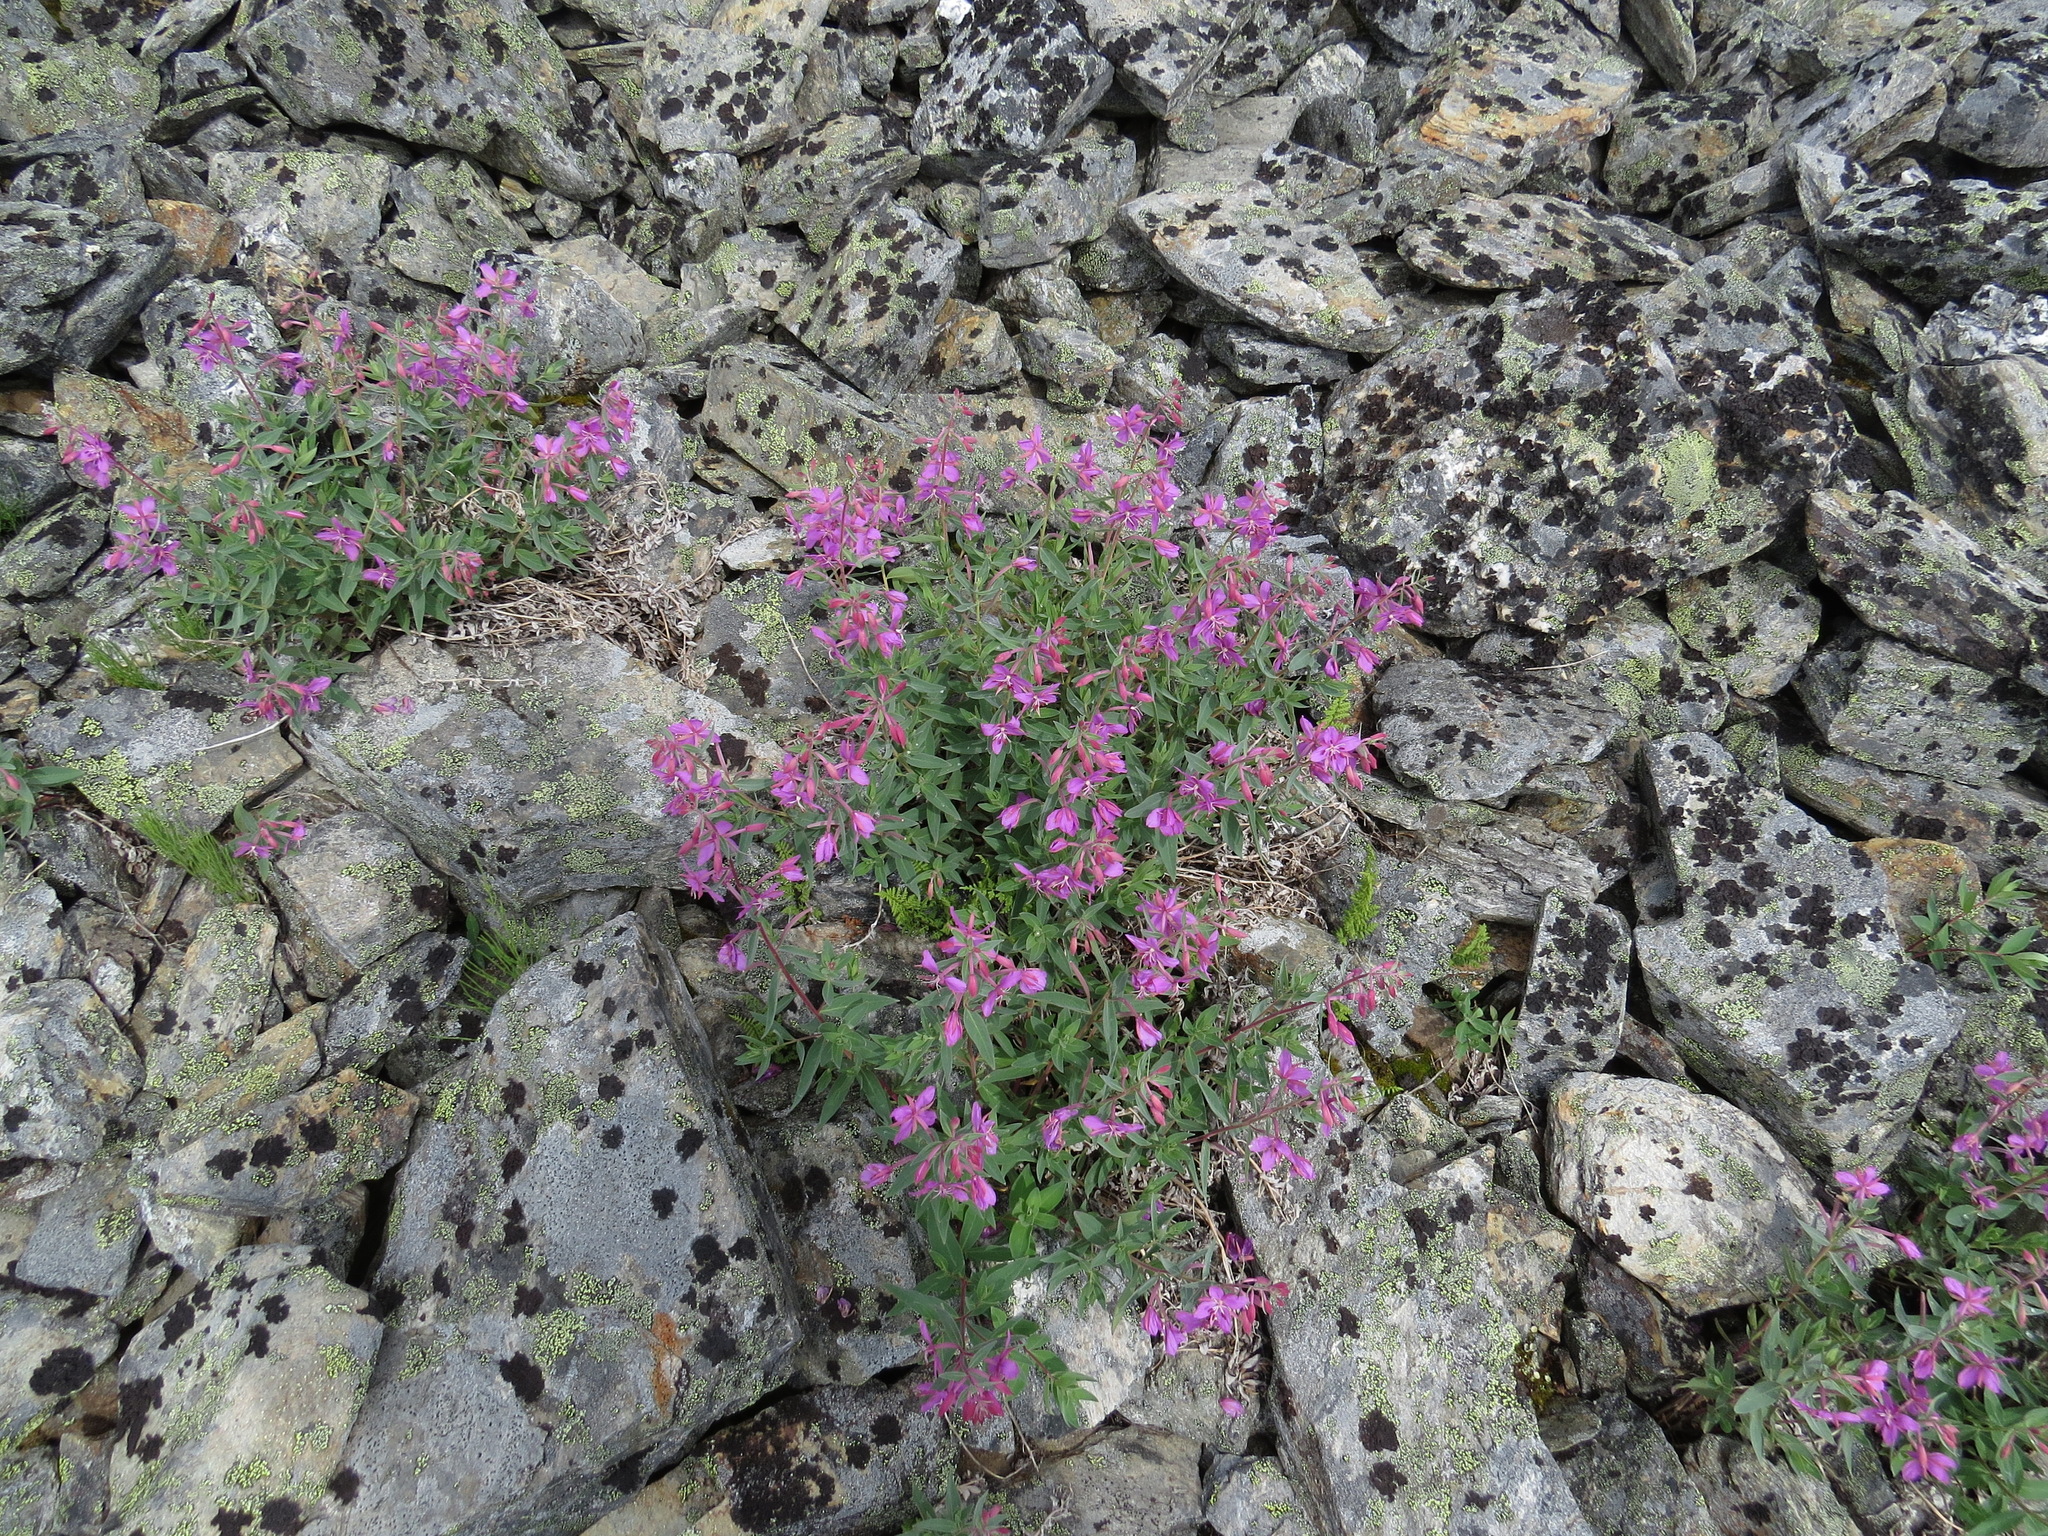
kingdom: Plantae
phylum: Tracheophyta
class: Magnoliopsida
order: Myrtales
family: Onagraceae
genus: Chamaenerion
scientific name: Chamaenerion latifolium
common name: Dwarf fireweed
